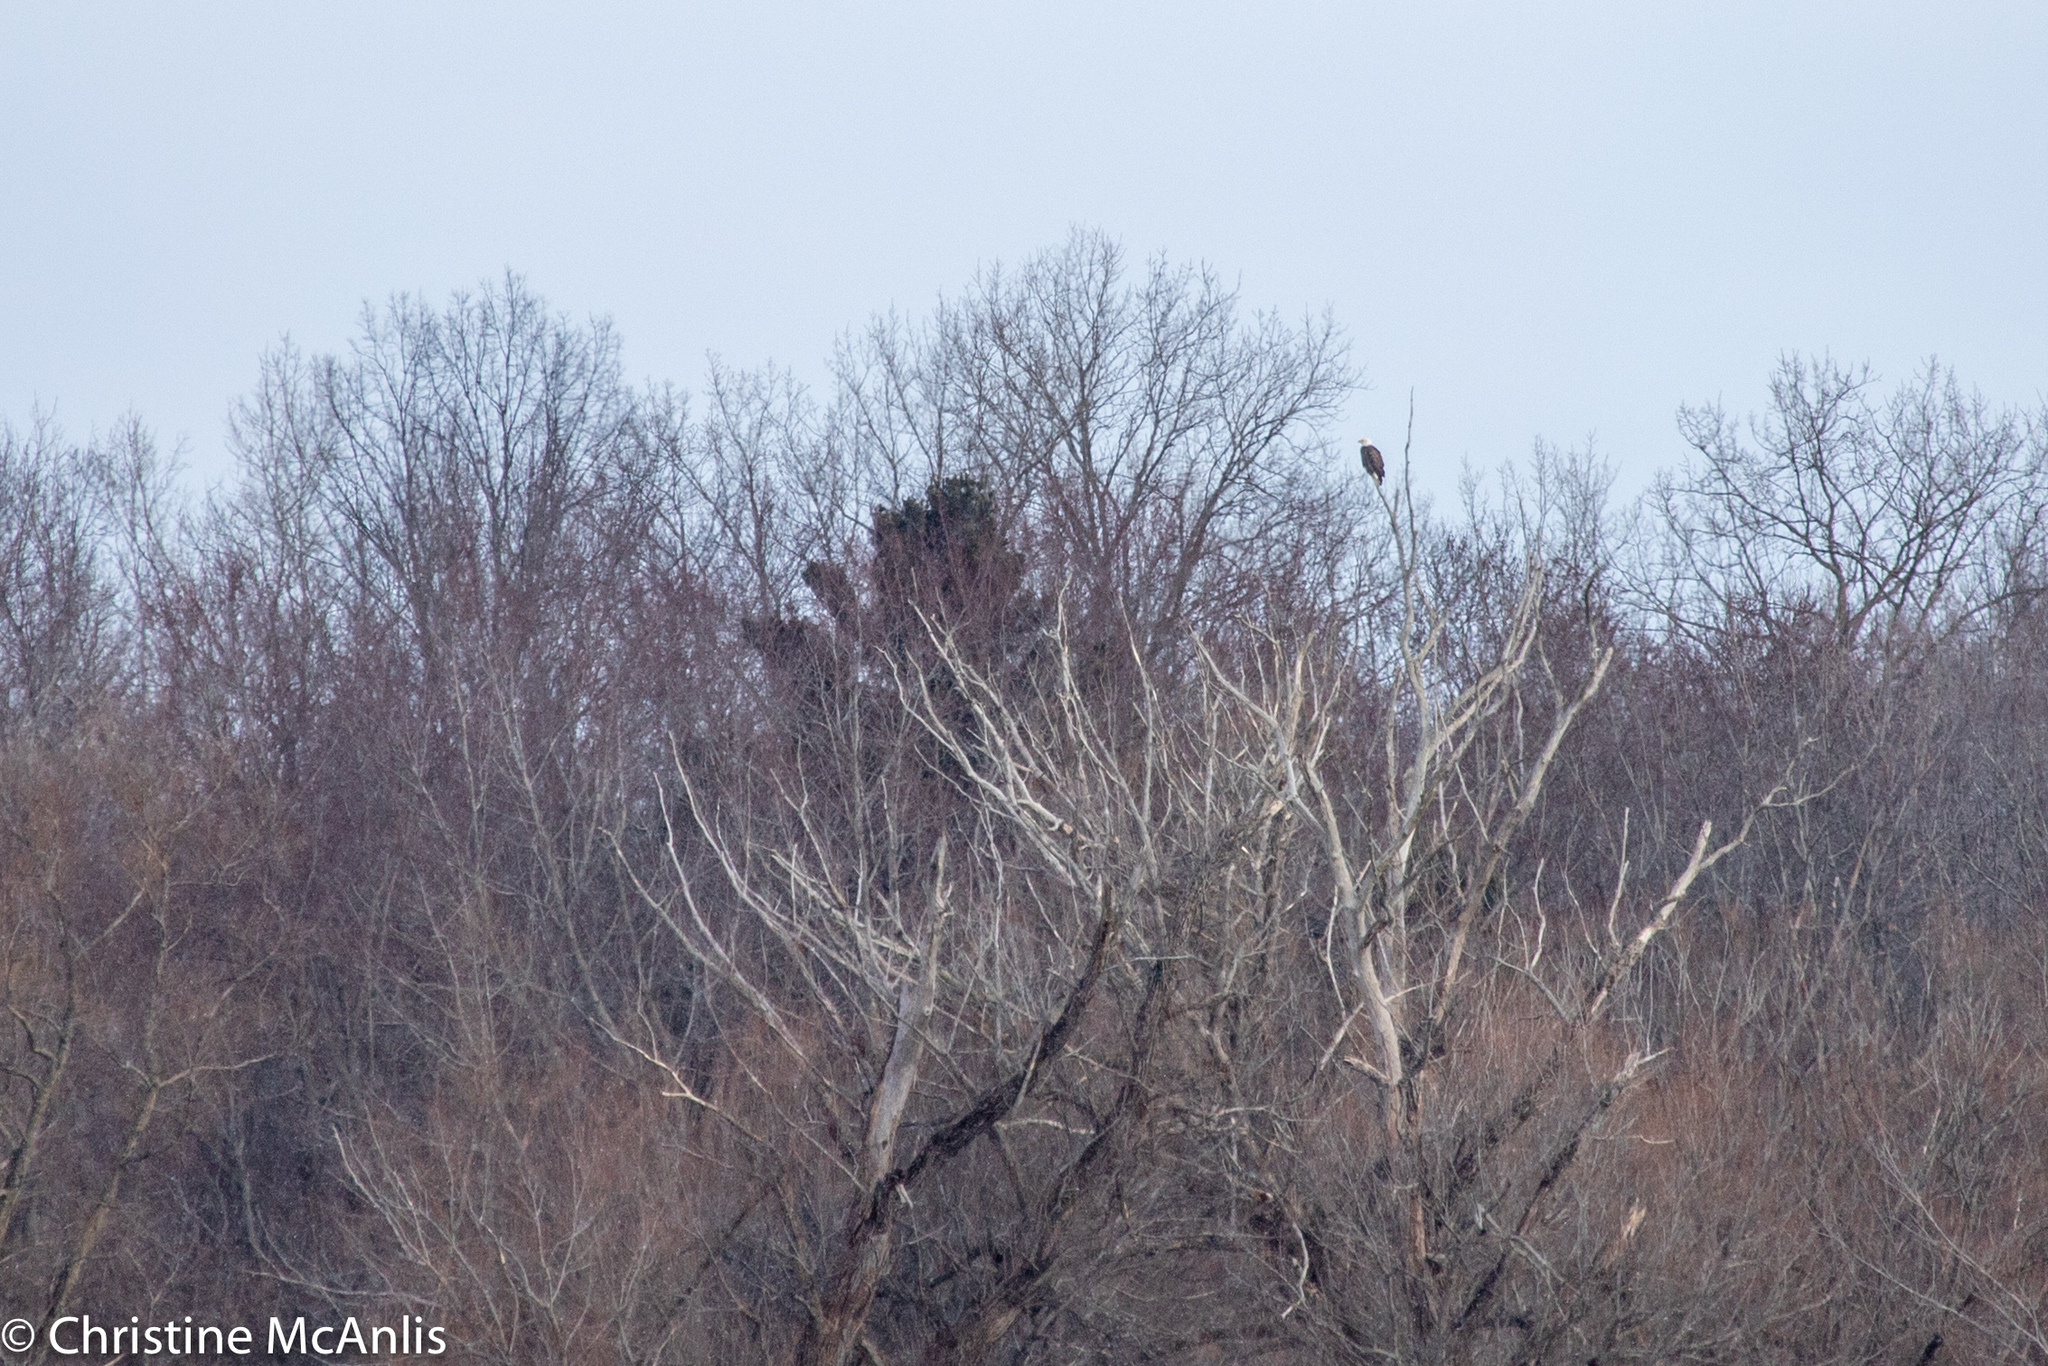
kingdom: Animalia
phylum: Chordata
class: Aves
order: Accipitriformes
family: Accipitridae
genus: Haliaeetus
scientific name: Haliaeetus leucocephalus
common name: Bald eagle
